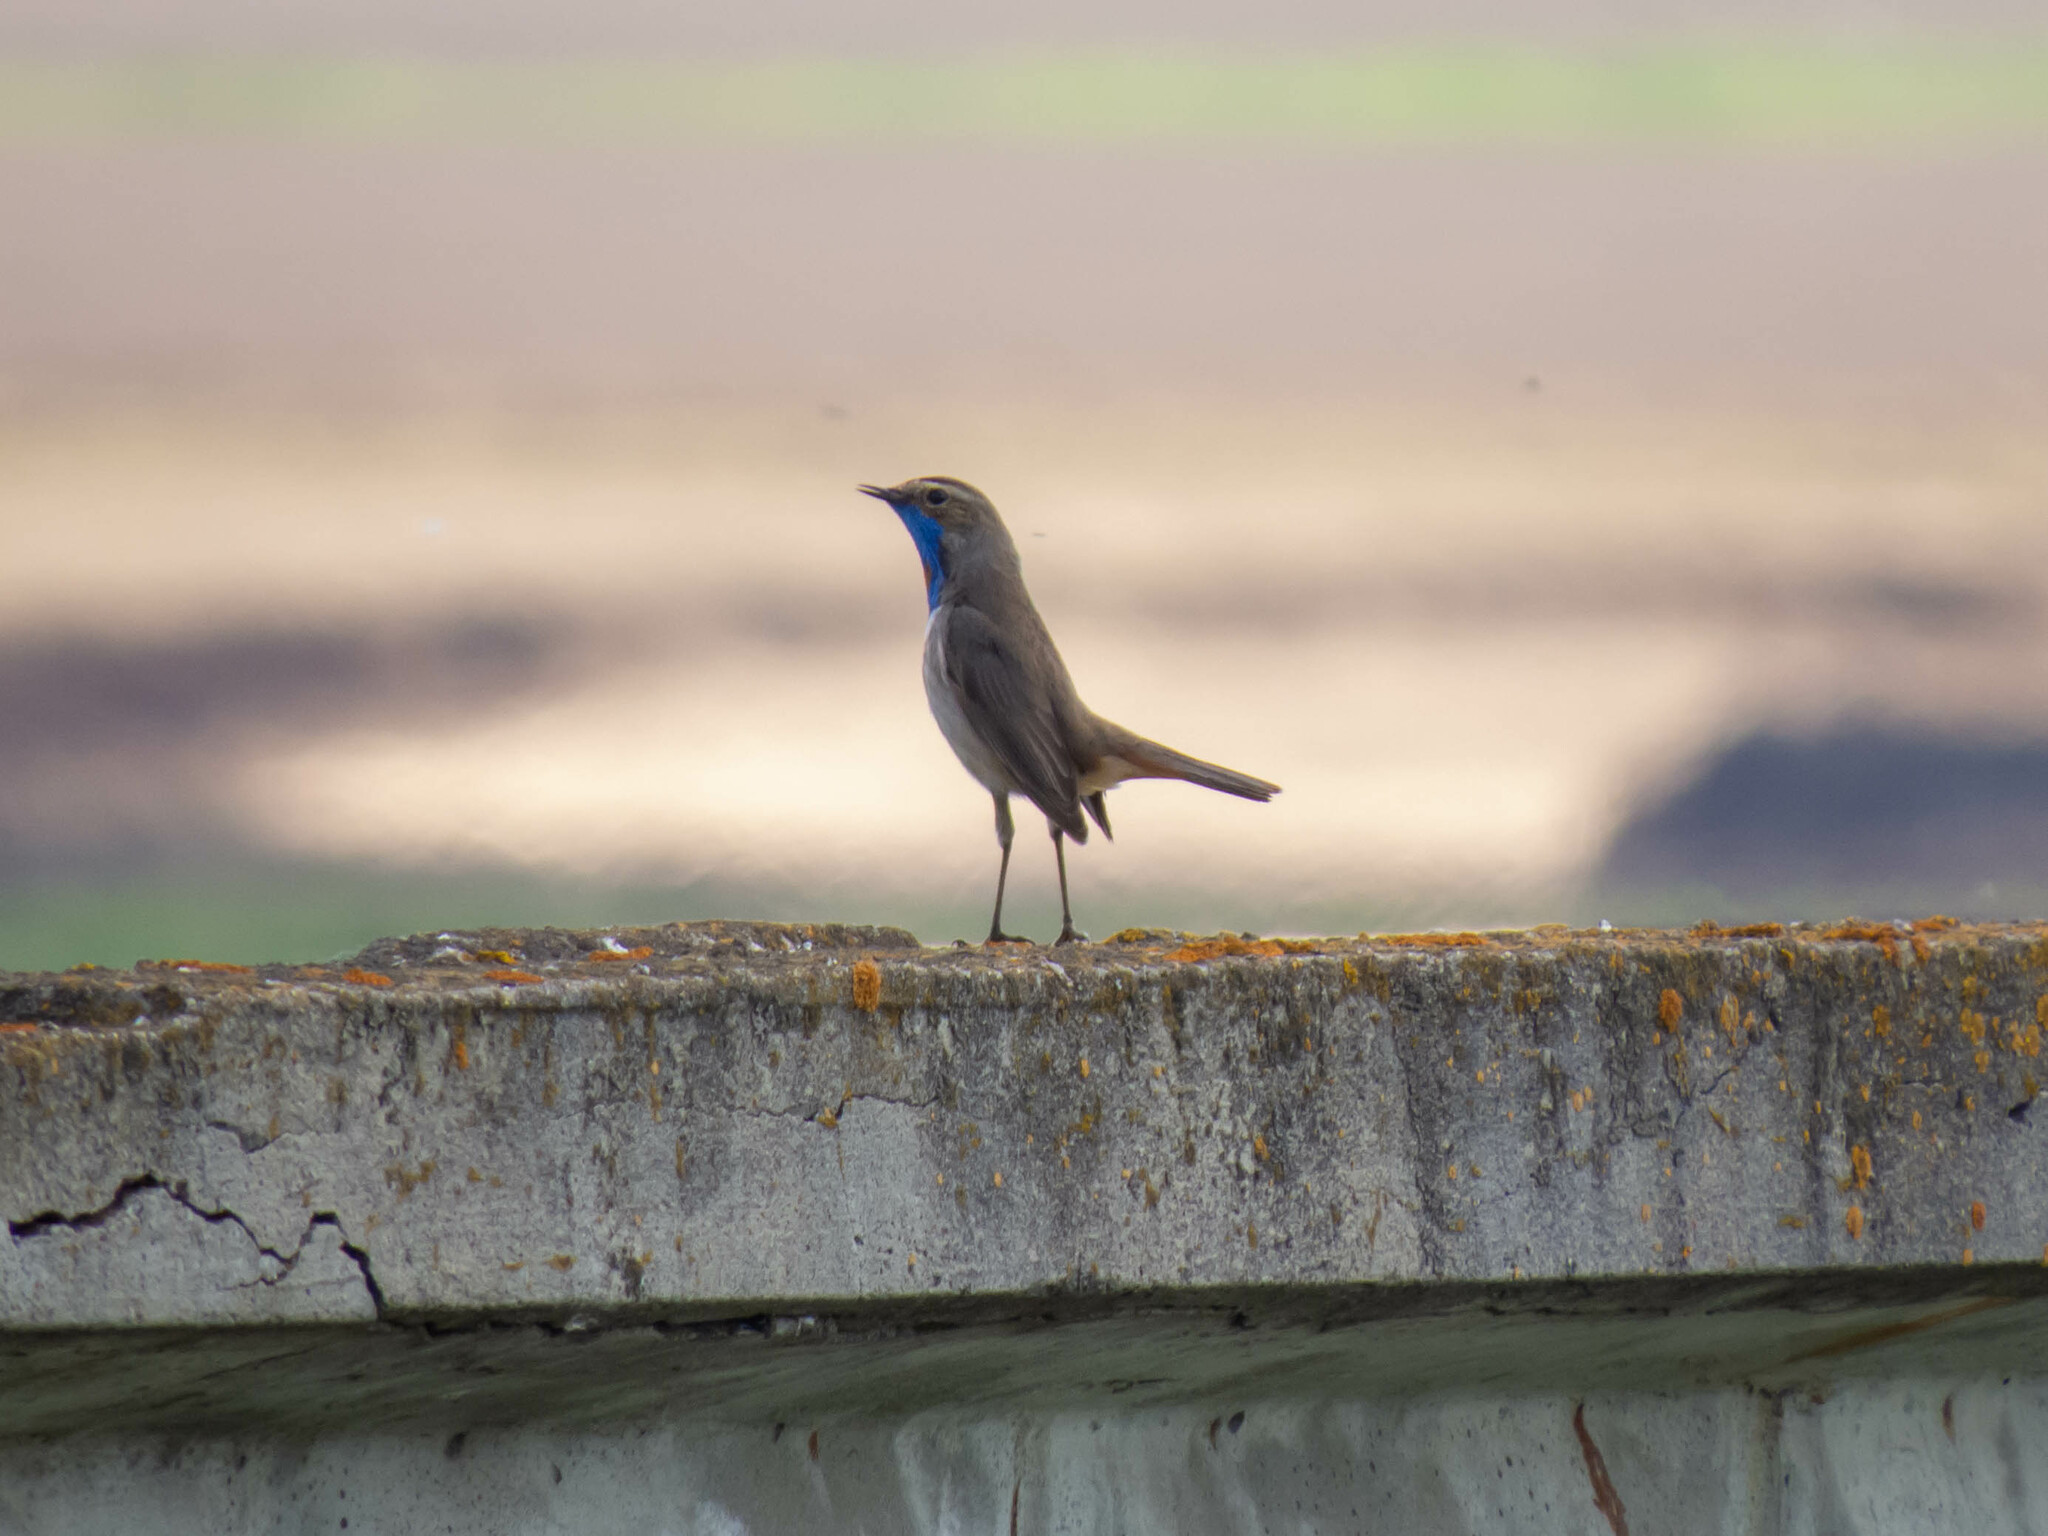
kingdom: Animalia
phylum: Chordata
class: Aves
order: Passeriformes
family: Muscicapidae
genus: Luscinia
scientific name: Luscinia svecica
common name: Bluethroat
